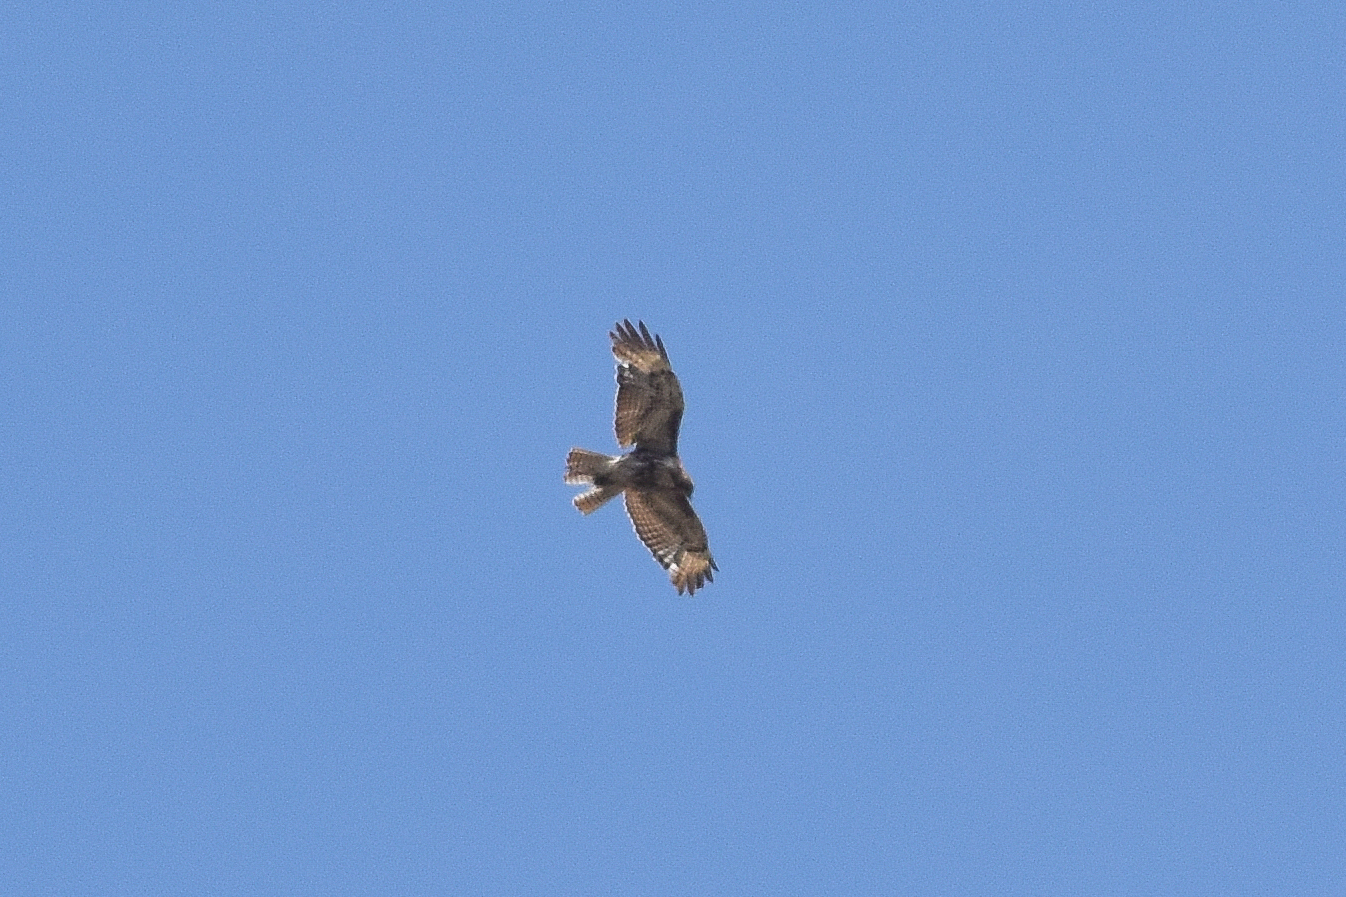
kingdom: Animalia
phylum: Chordata
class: Aves
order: Accipitriformes
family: Accipitridae
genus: Buteo
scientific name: Buteo jamaicensis
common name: Red-tailed hawk
